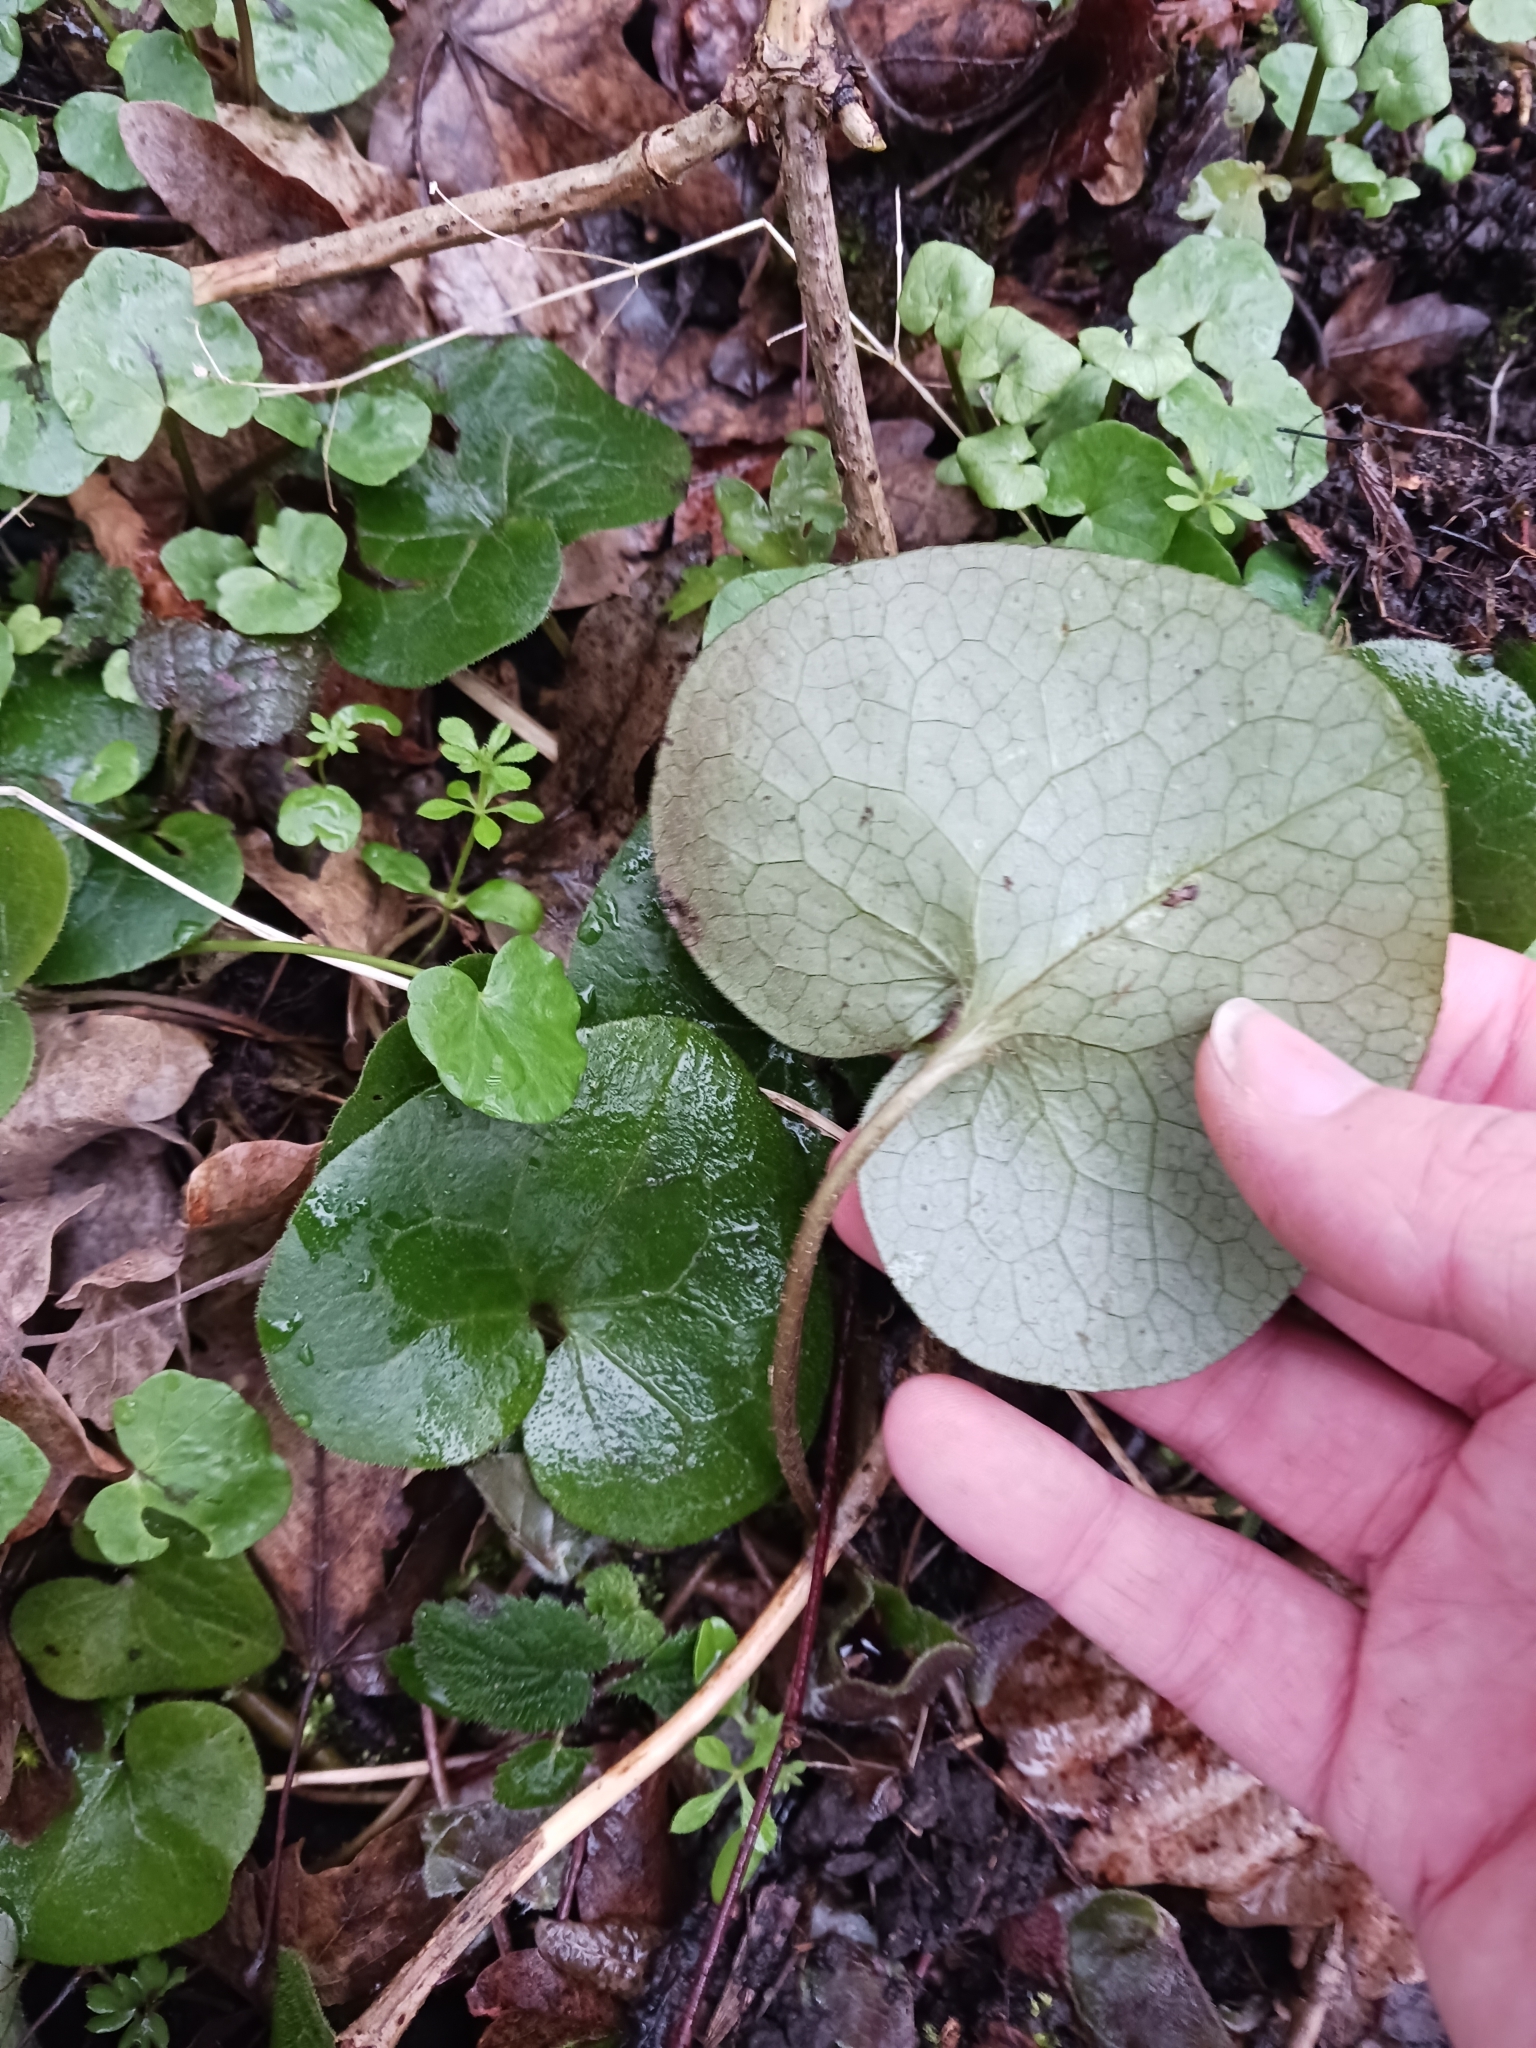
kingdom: Plantae
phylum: Tracheophyta
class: Magnoliopsida
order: Piperales
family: Aristolochiaceae
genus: Asarum
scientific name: Asarum europaeum
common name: Asarabacca
